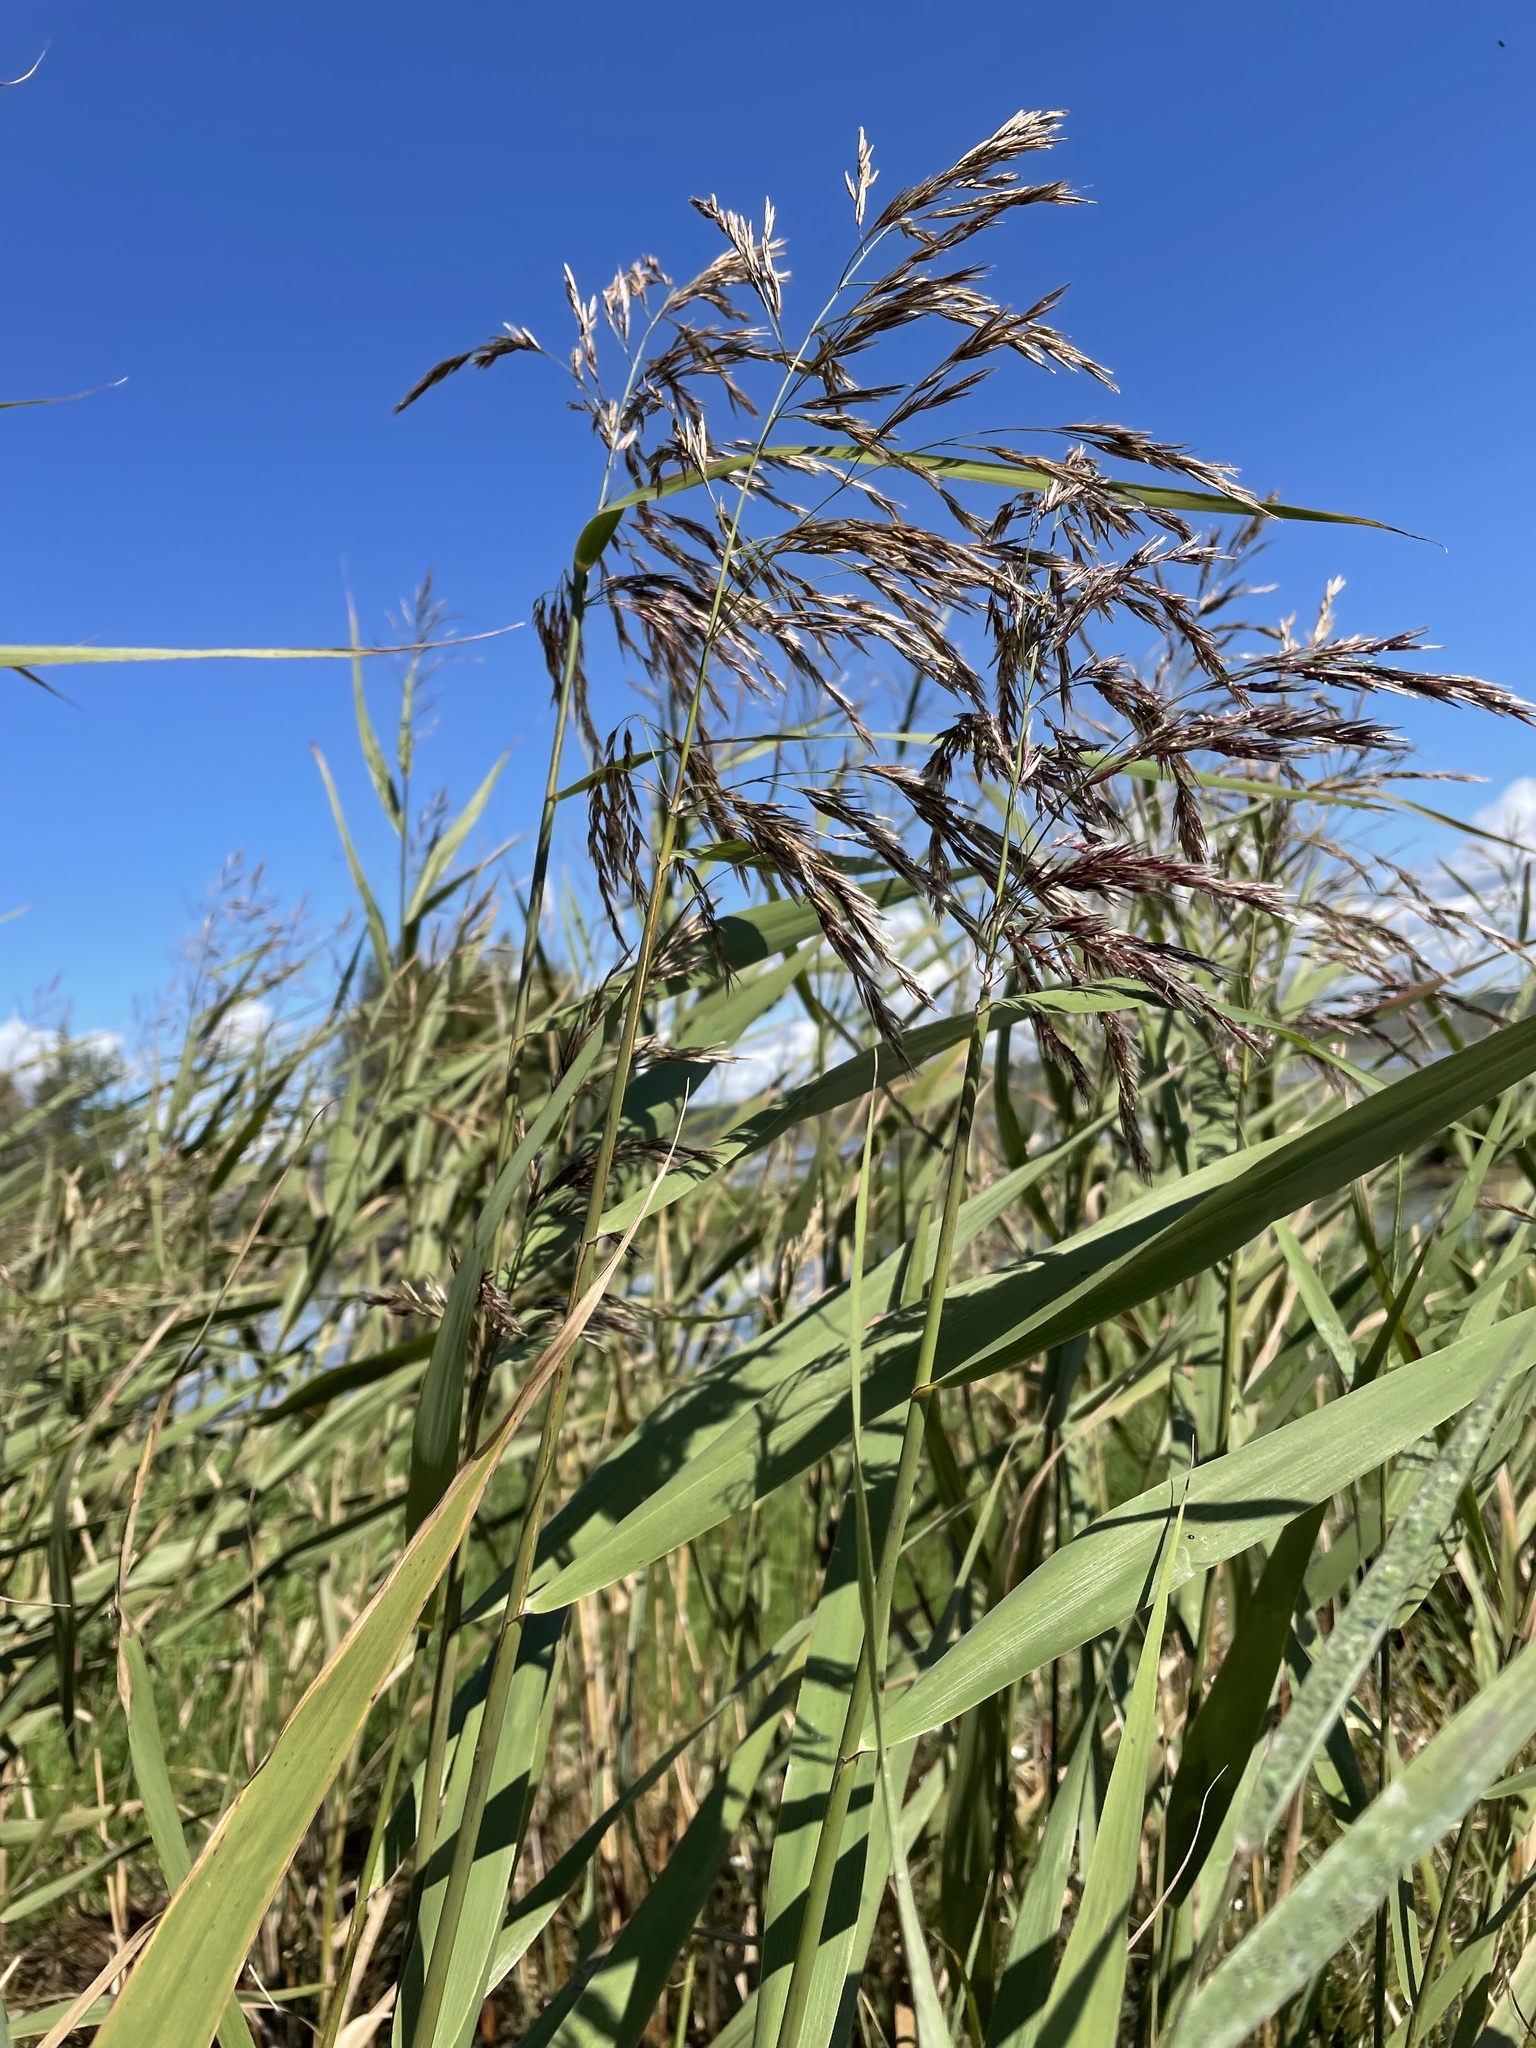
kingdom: Plantae
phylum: Tracheophyta
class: Liliopsida
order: Poales
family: Poaceae
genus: Phragmites
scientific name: Phragmites australis
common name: Common reed
